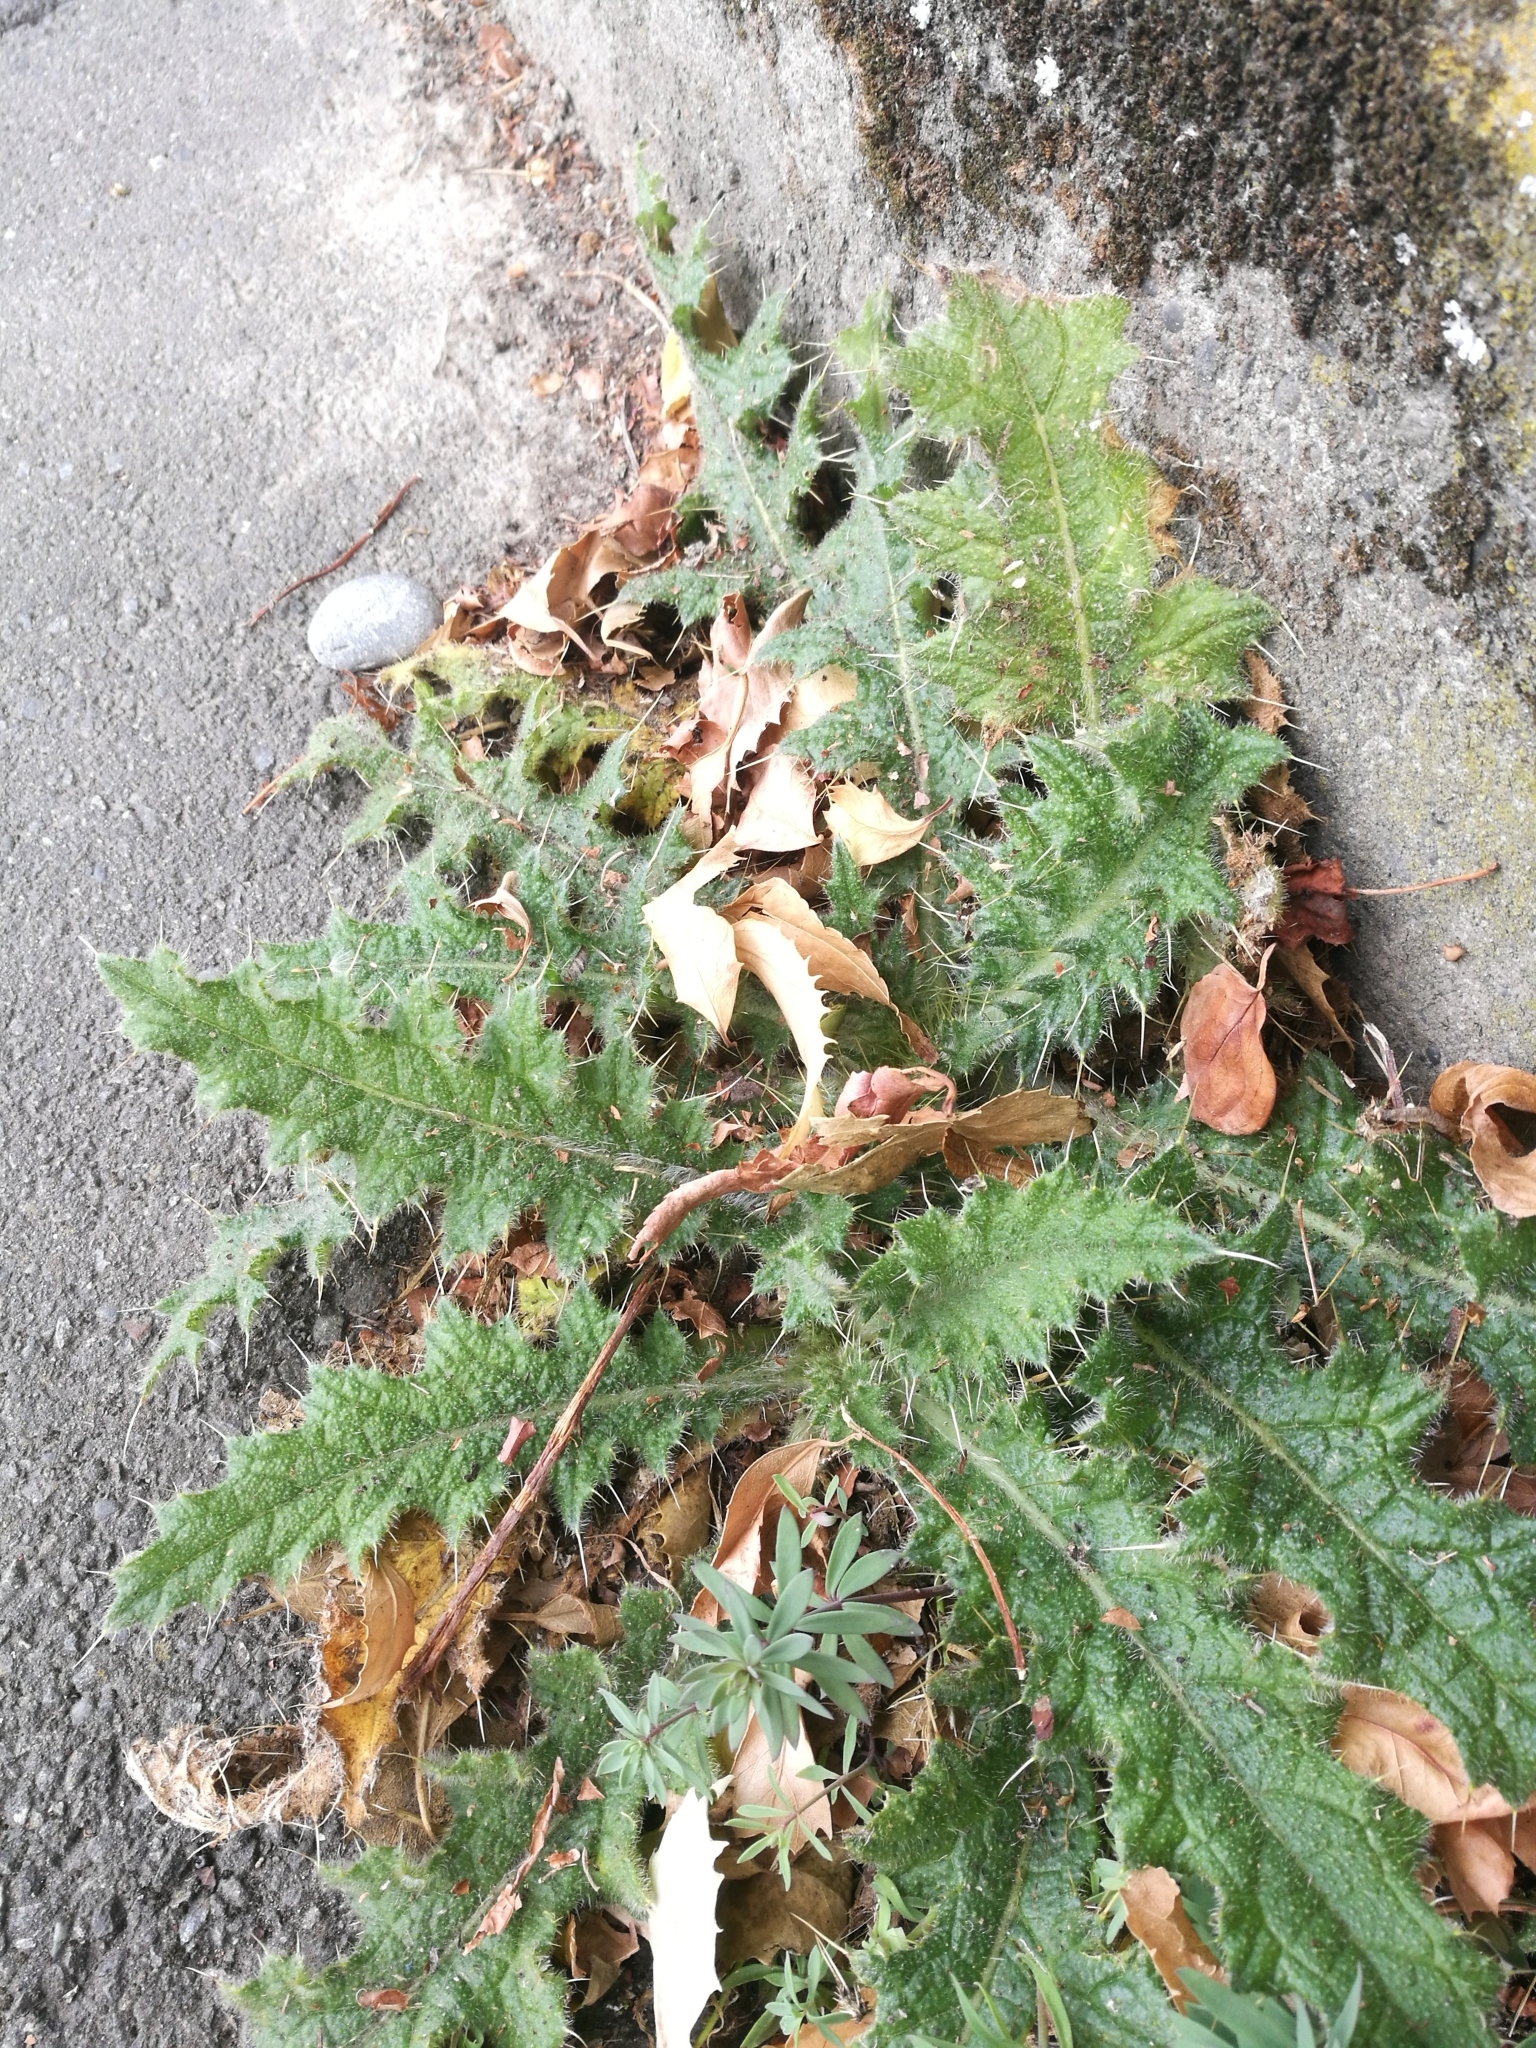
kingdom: Plantae
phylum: Tracheophyta
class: Magnoliopsida
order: Asterales
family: Asteraceae
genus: Cirsium
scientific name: Cirsium vulgare
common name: Bull thistle
